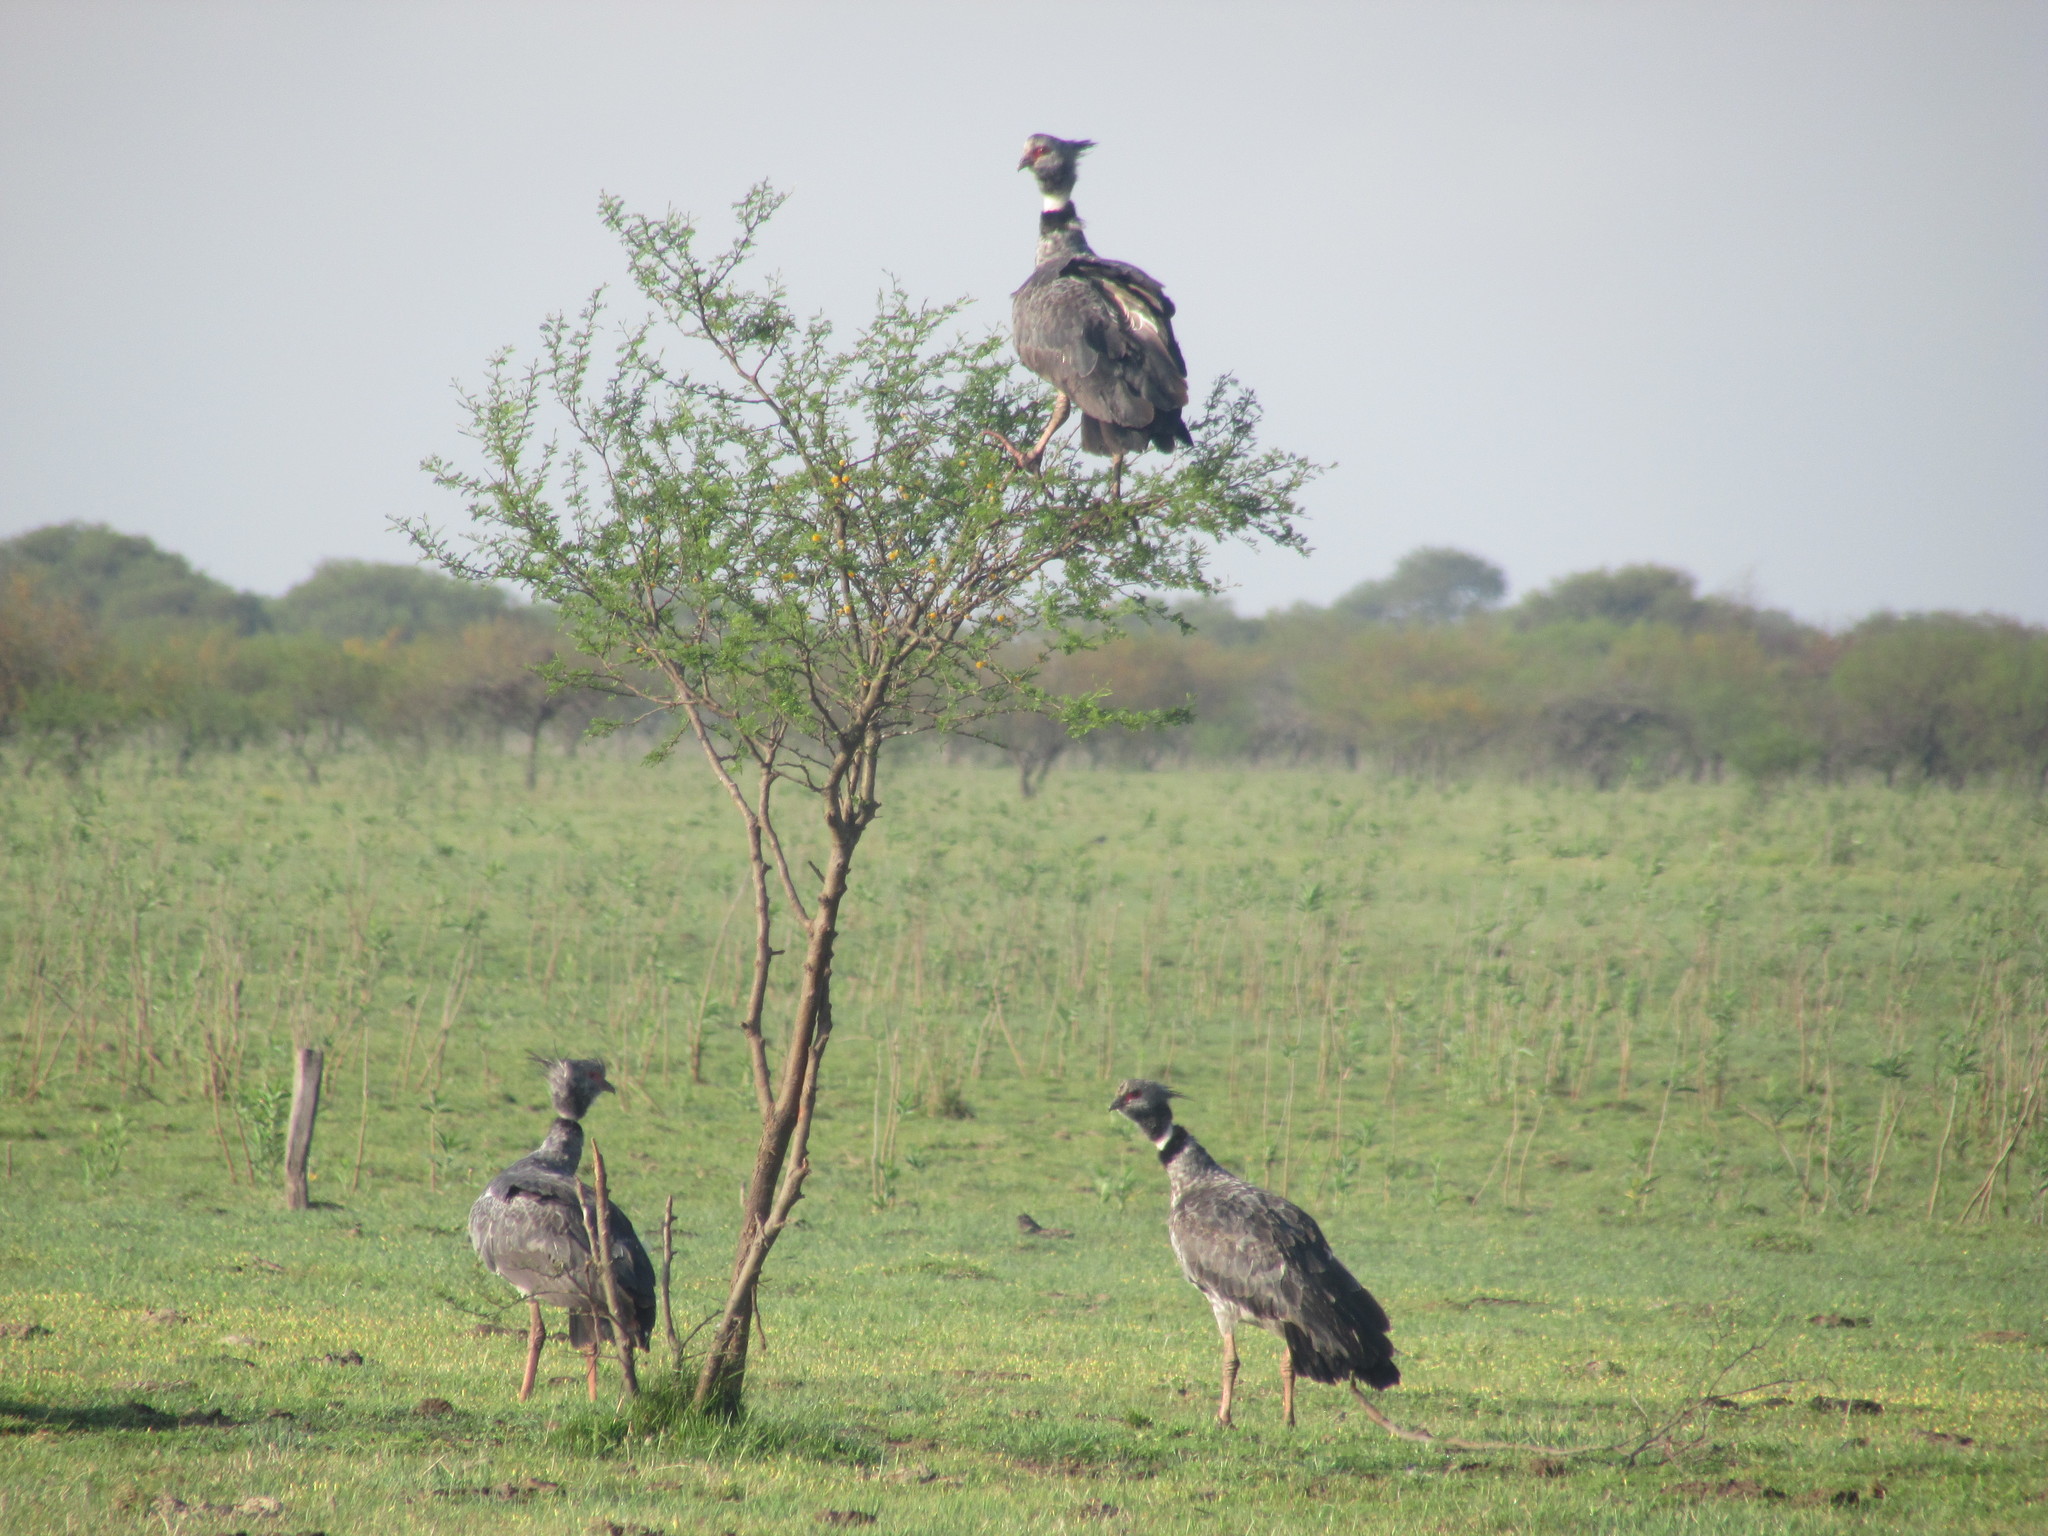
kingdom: Animalia
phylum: Chordata
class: Aves
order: Anseriformes
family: Anhimidae
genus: Chauna
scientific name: Chauna torquata
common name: Southern screamer
